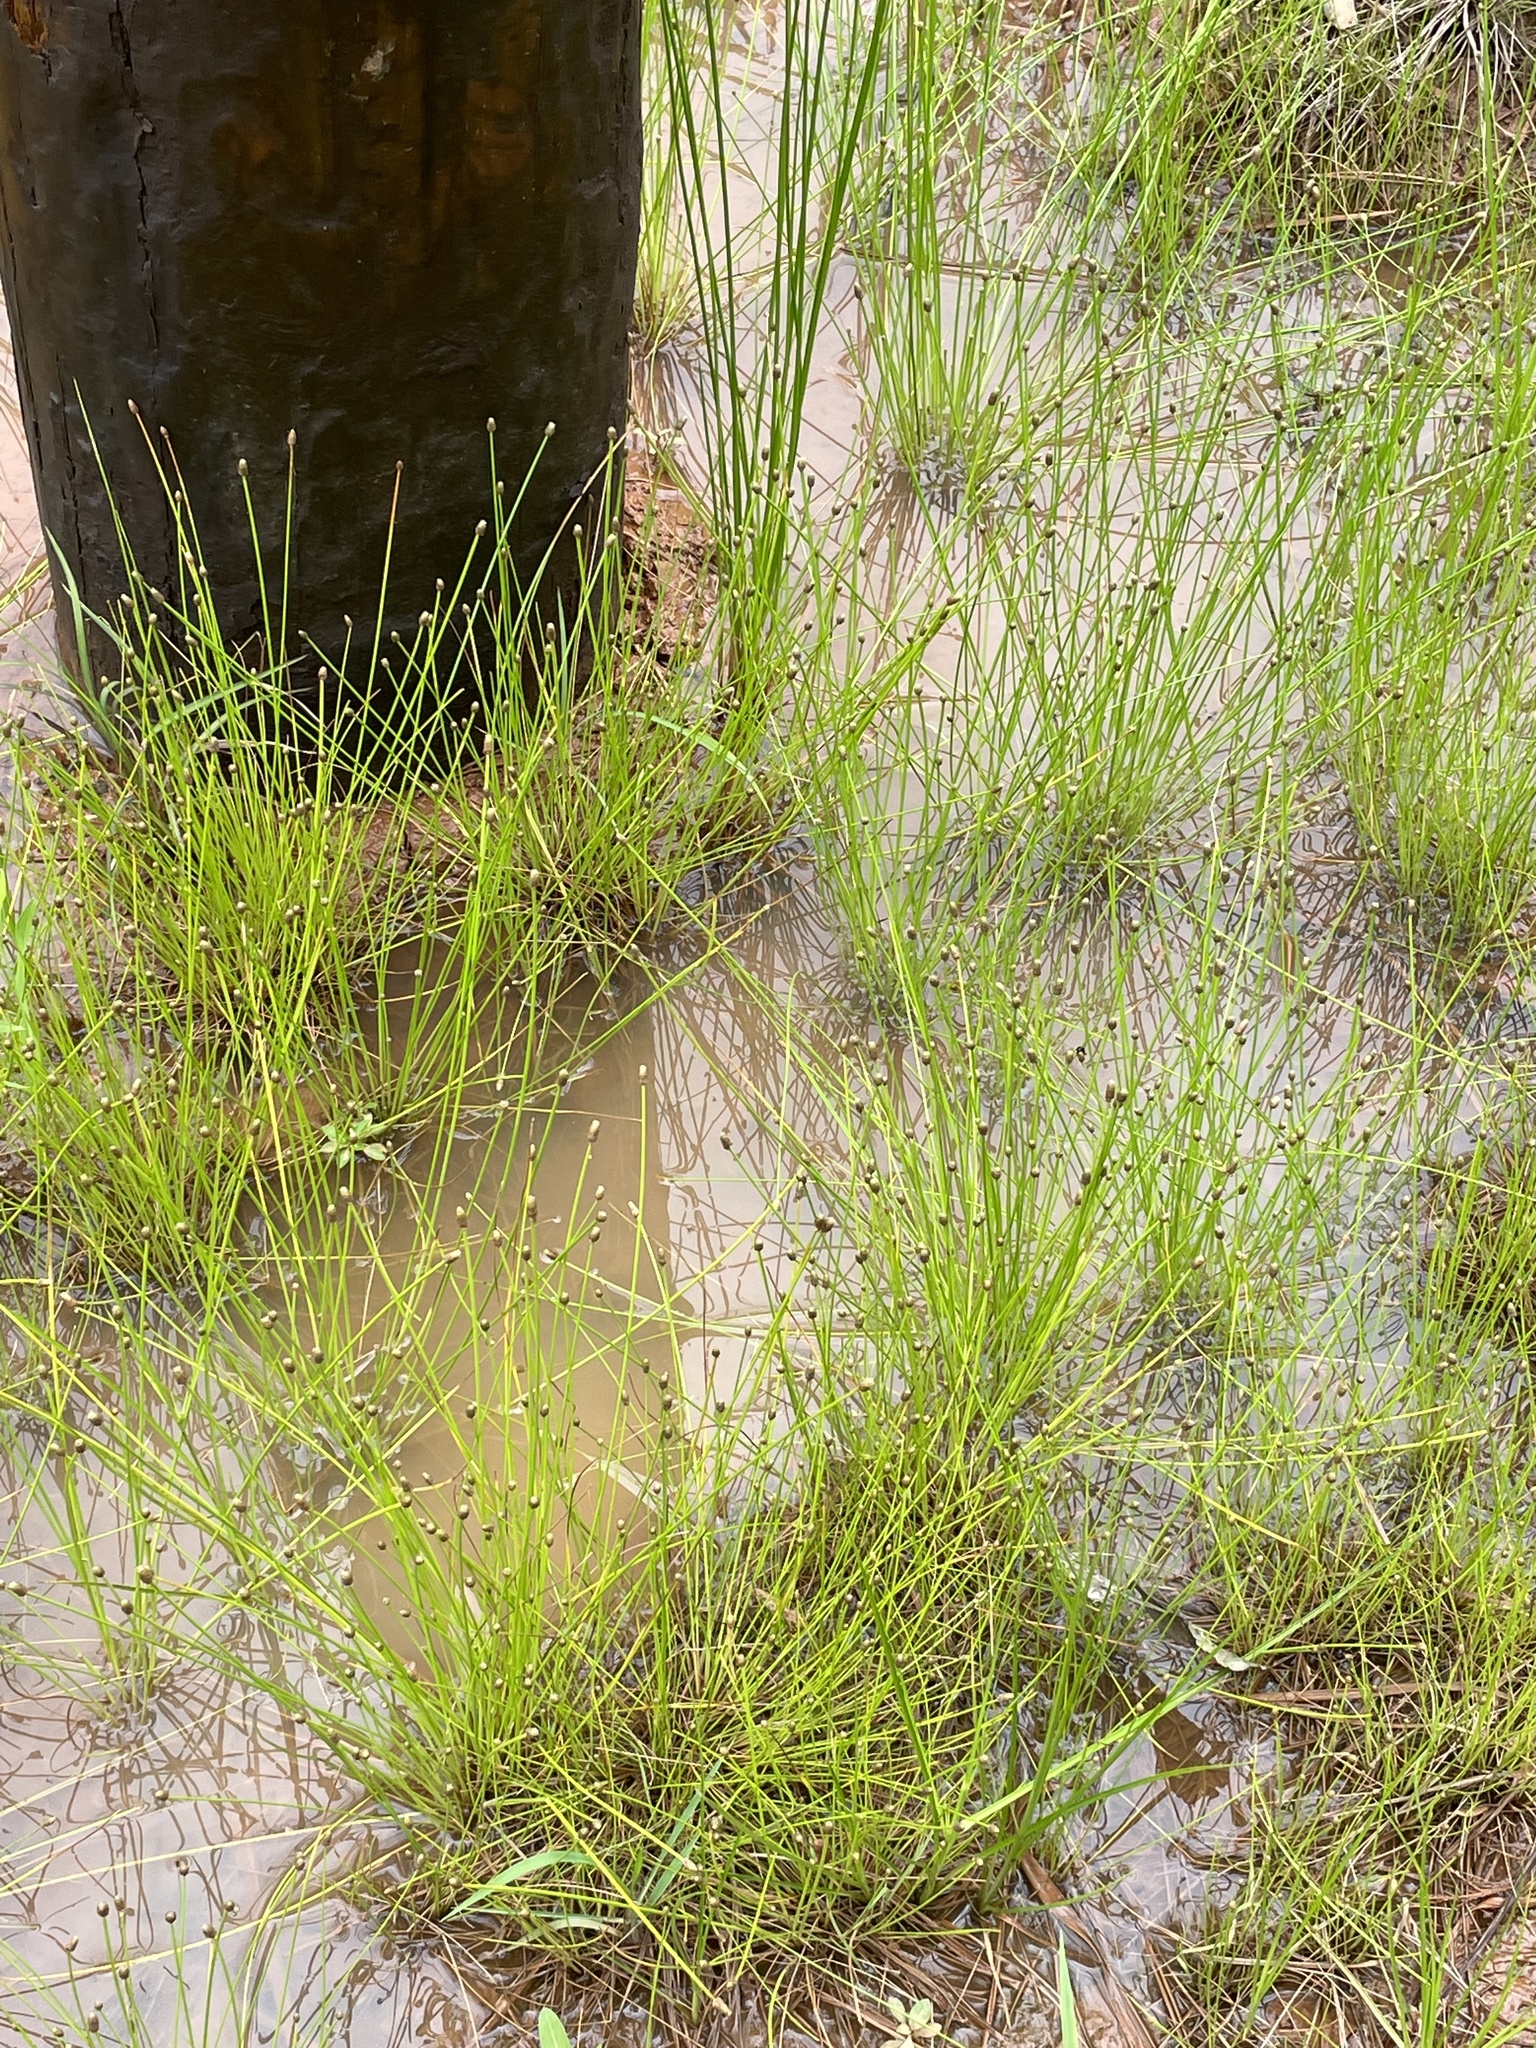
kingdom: Plantae
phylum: Tracheophyta
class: Liliopsida
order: Poales
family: Cyperaceae
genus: Eleocharis
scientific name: Eleocharis obtusa
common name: Blunt spikerush
